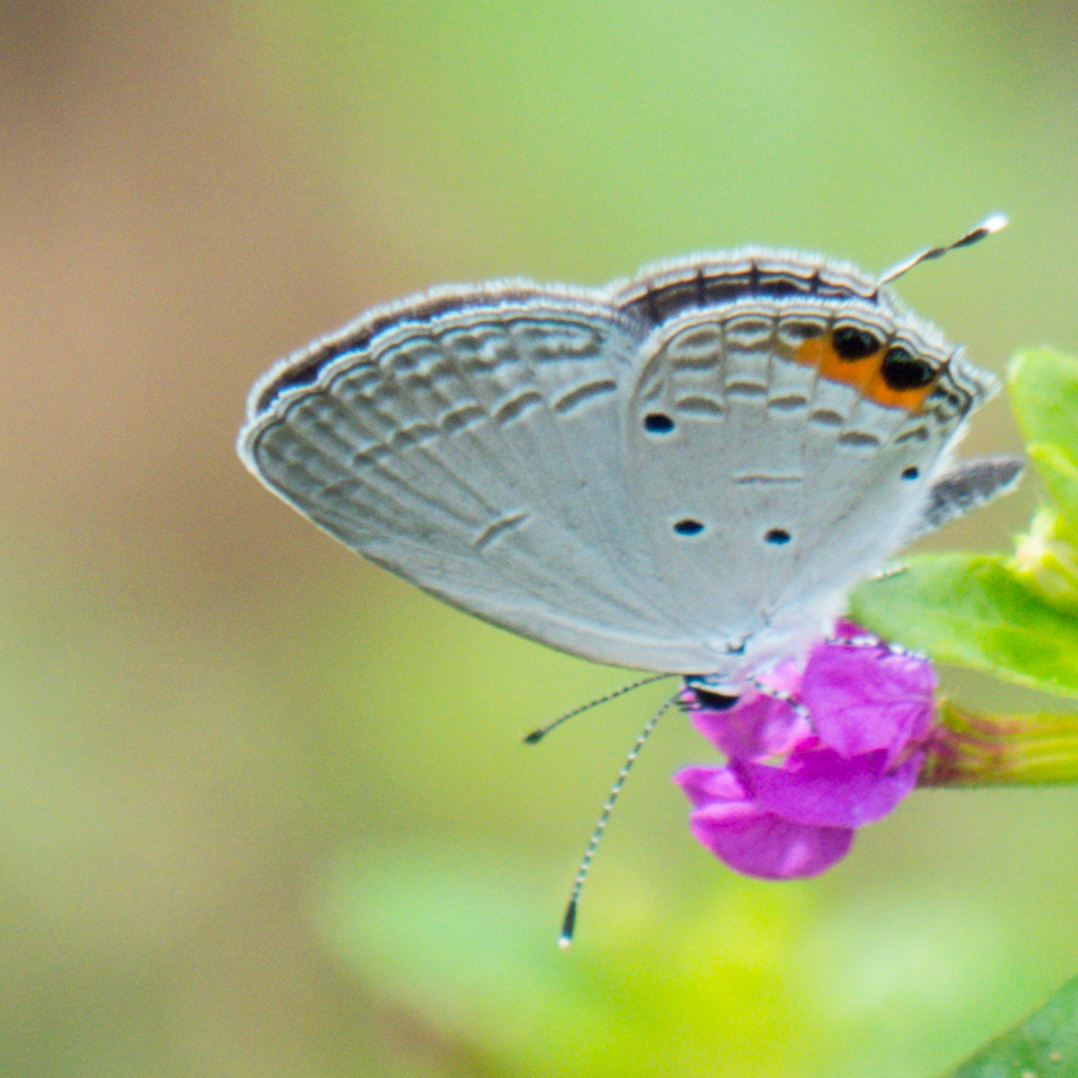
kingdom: Animalia
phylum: Arthropoda
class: Insecta
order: Lepidoptera
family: Lycaenidae
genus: Everes
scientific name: Everes lacturnus
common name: Orange-tipped pea-blue
